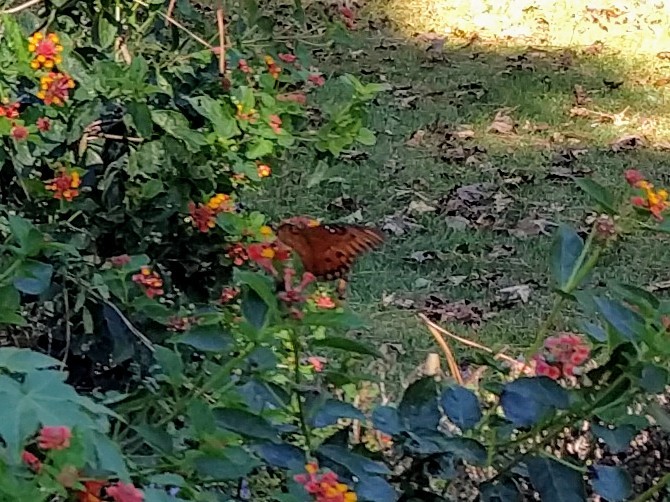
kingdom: Animalia
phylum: Arthropoda
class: Insecta
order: Lepidoptera
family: Nymphalidae
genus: Dione
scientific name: Dione vanillae
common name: Gulf fritillary
